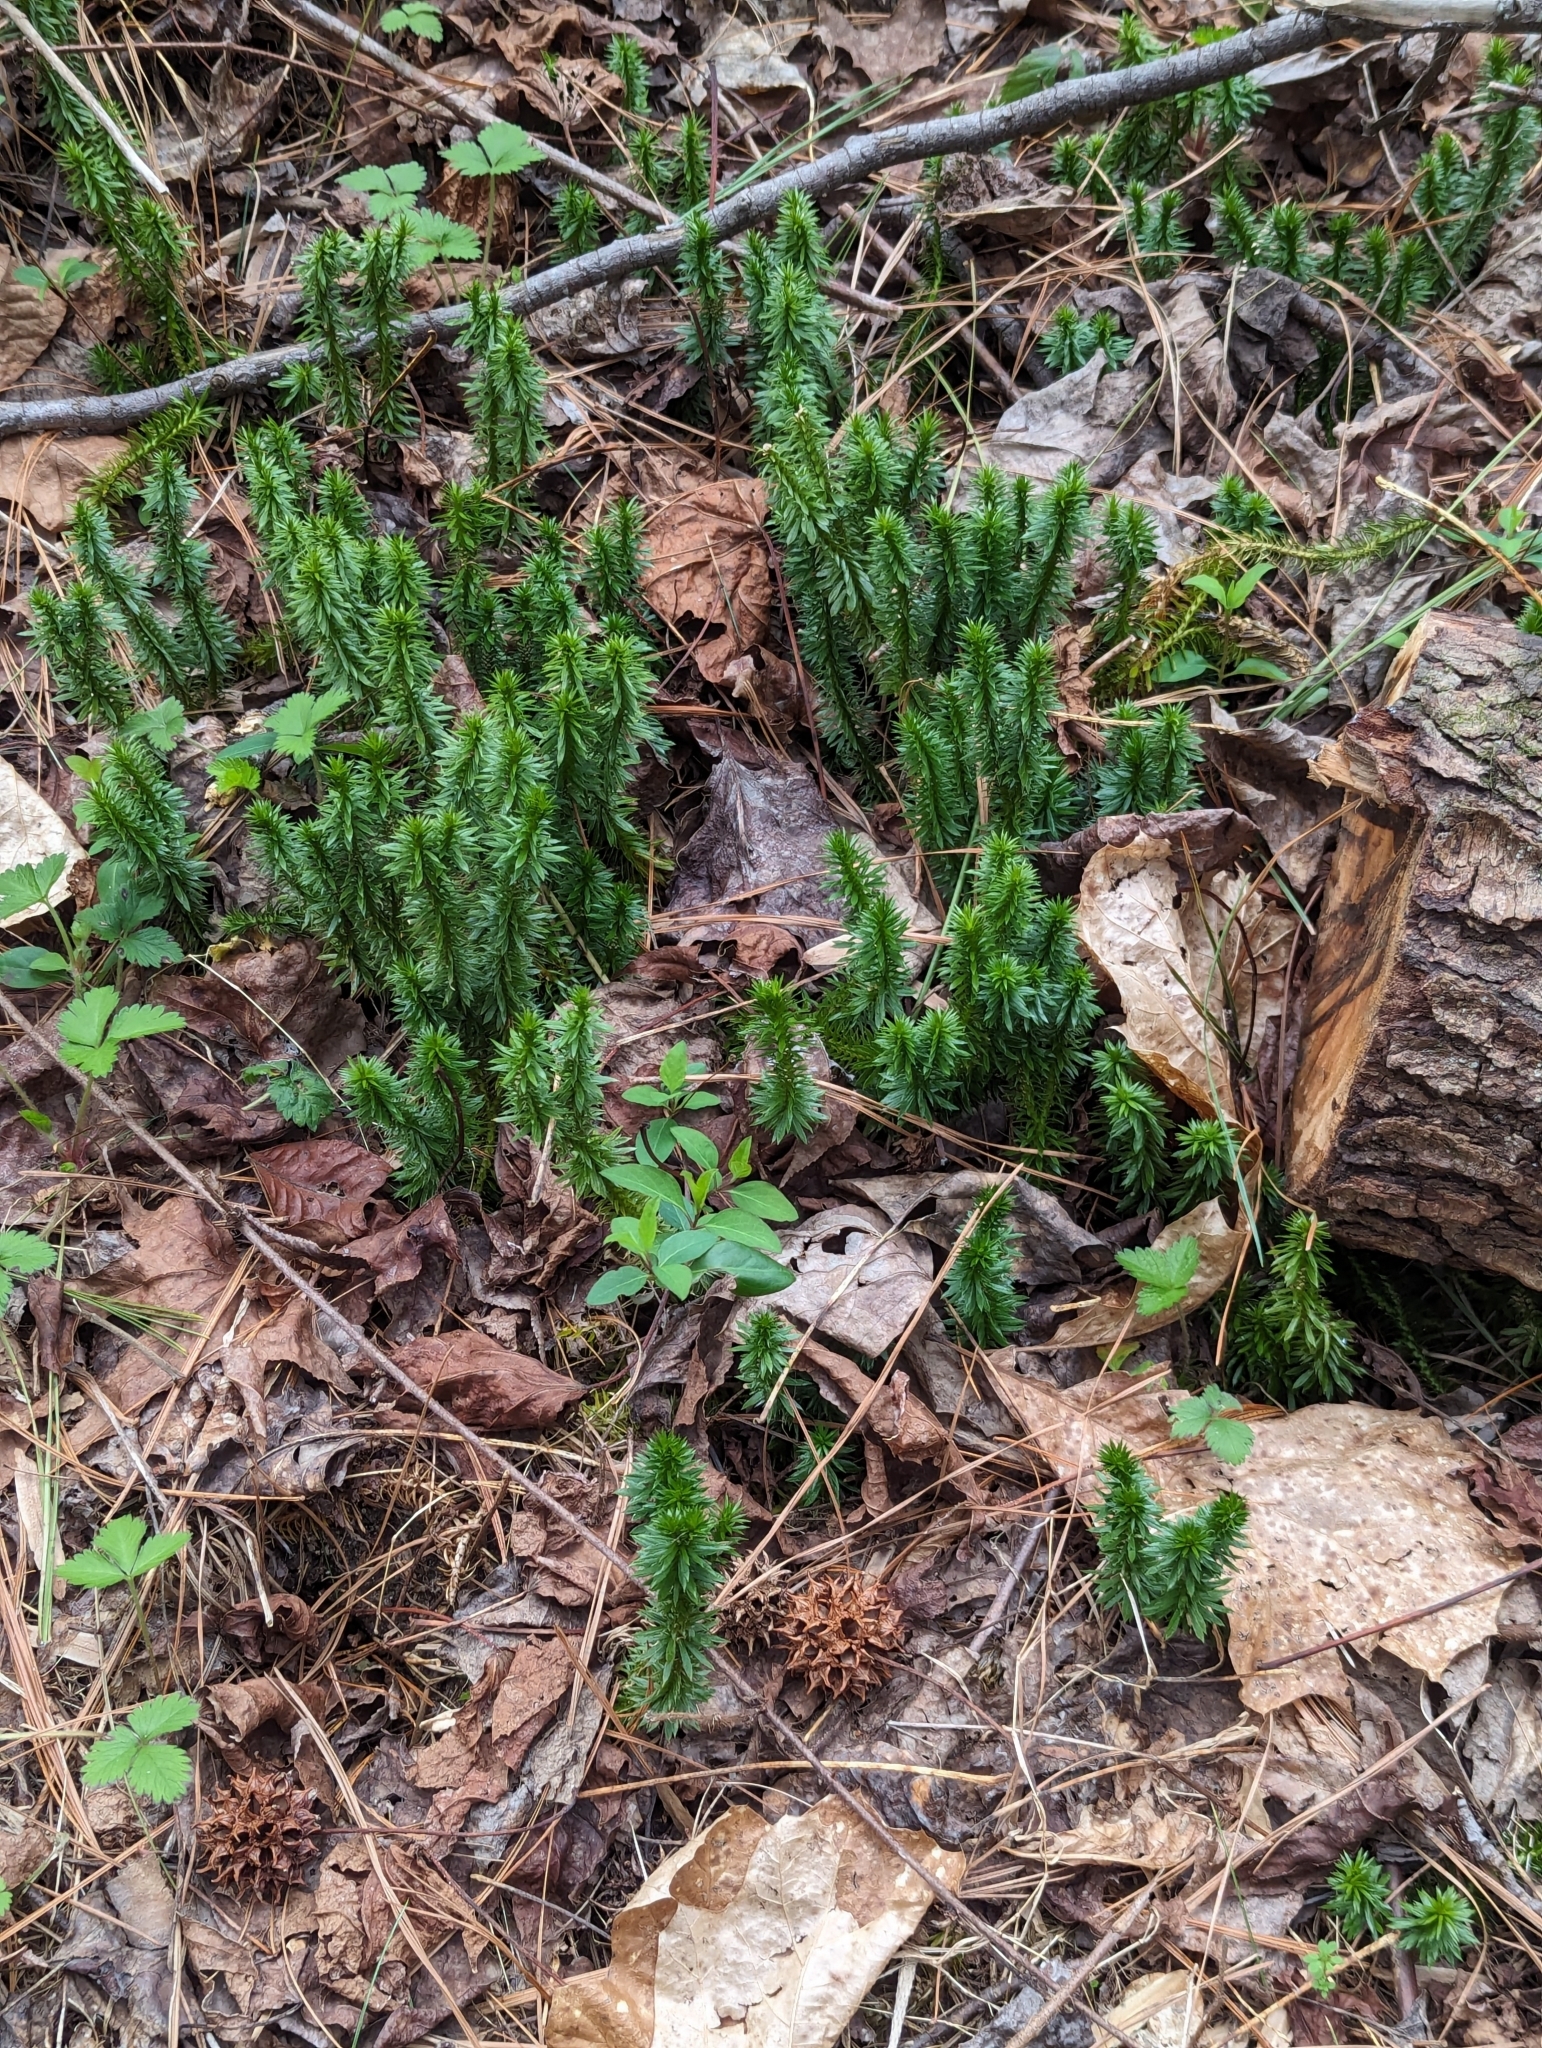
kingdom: Plantae
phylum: Tracheophyta
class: Lycopodiopsida
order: Lycopodiales
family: Lycopodiaceae
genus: Huperzia
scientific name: Huperzia lucidula
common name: Shining clubmoss
